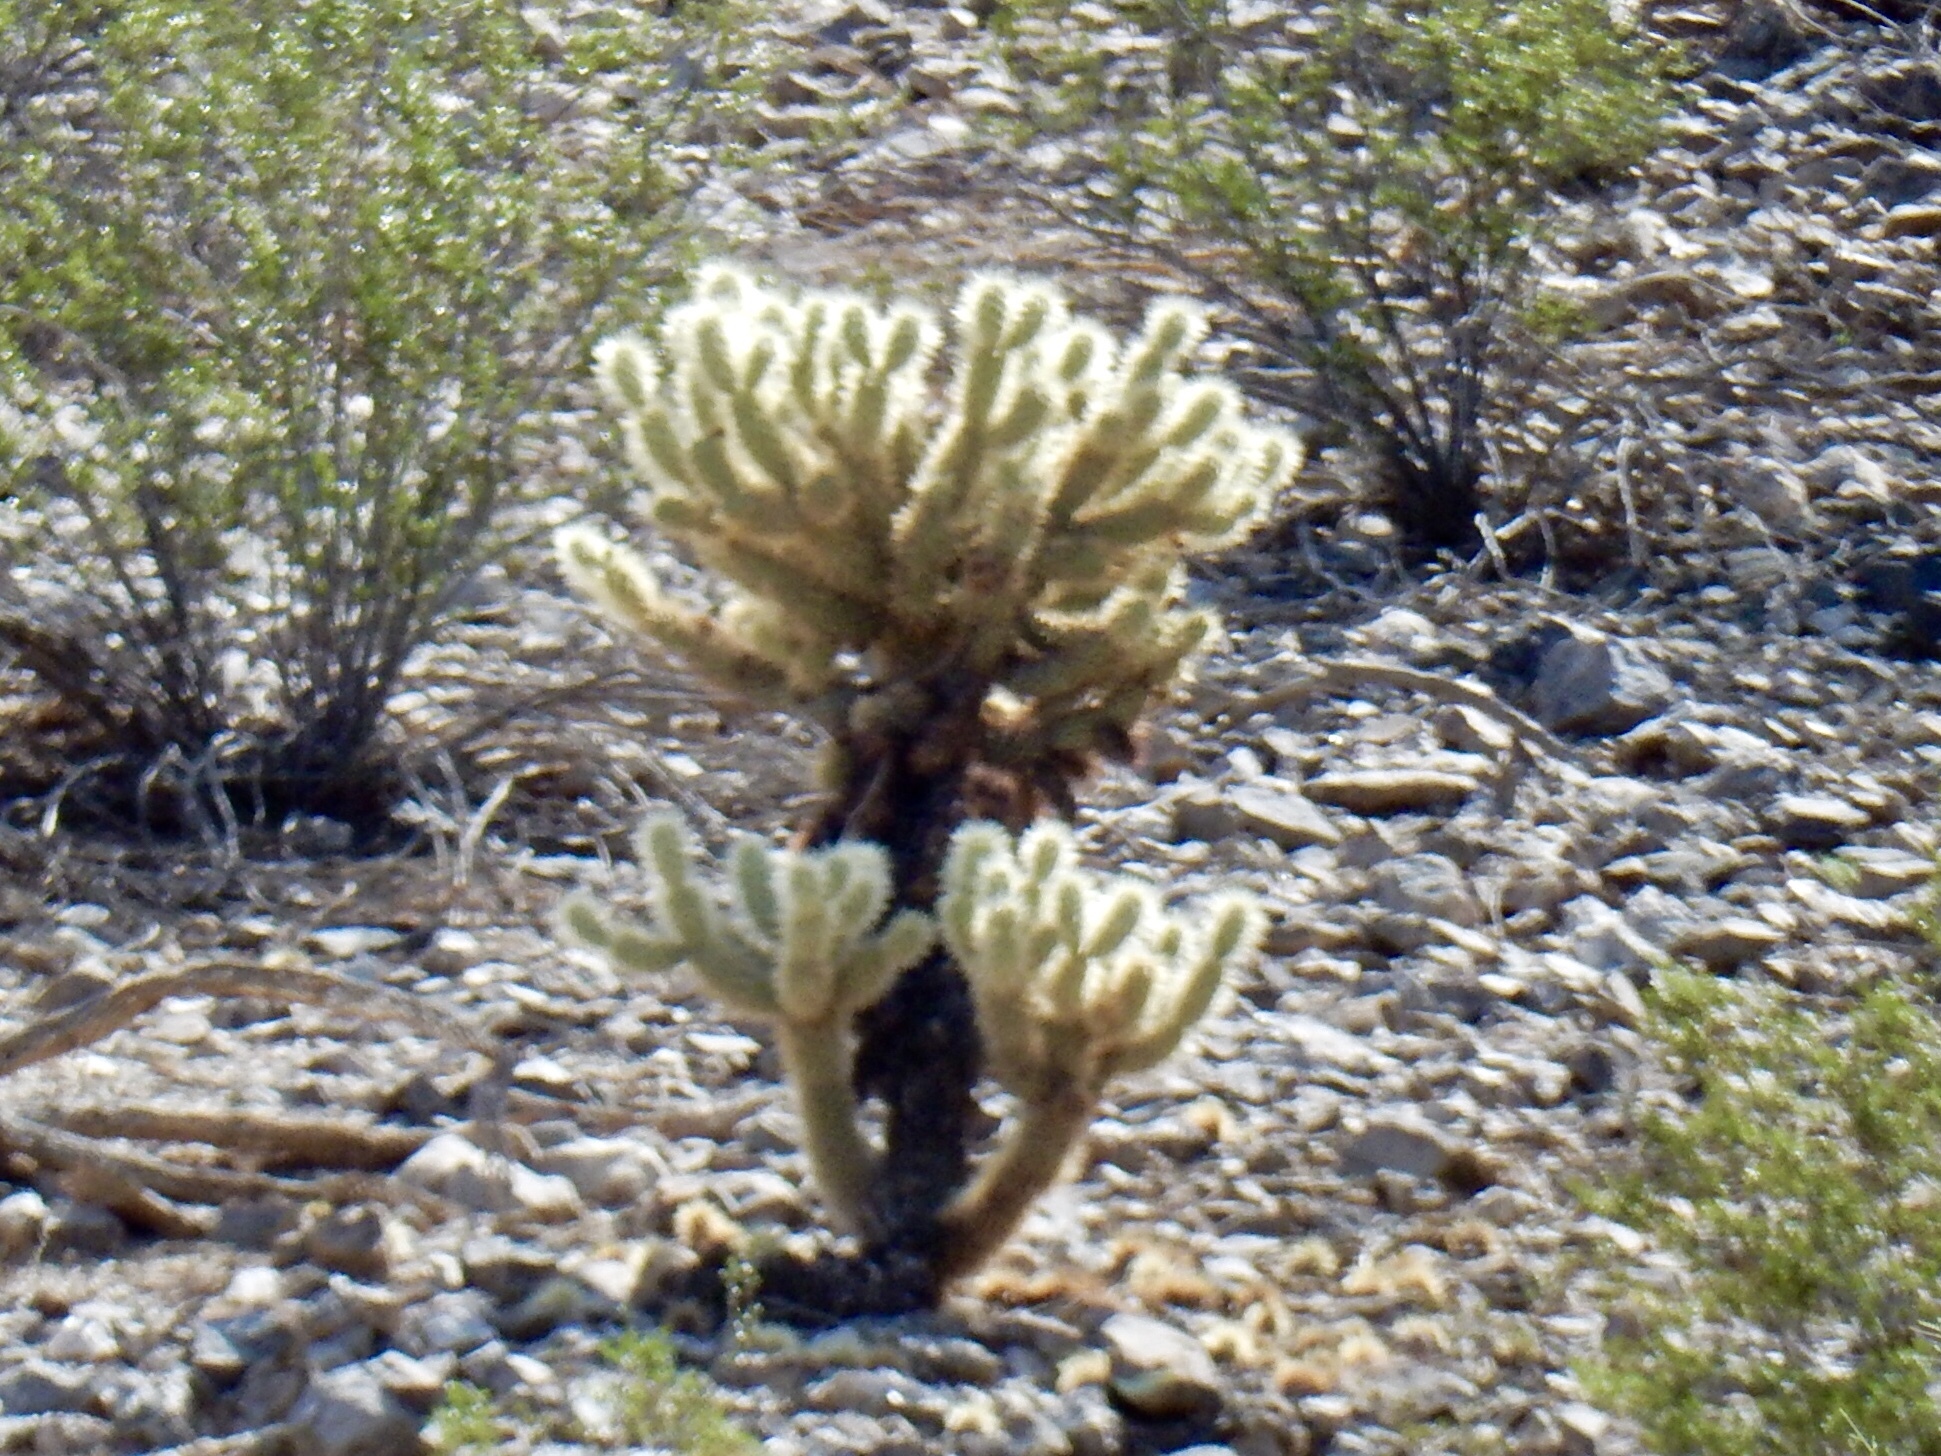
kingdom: Plantae
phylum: Tracheophyta
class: Magnoliopsida
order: Caryophyllales
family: Cactaceae
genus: Cylindropuntia
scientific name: Cylindropuntia fosbergii
